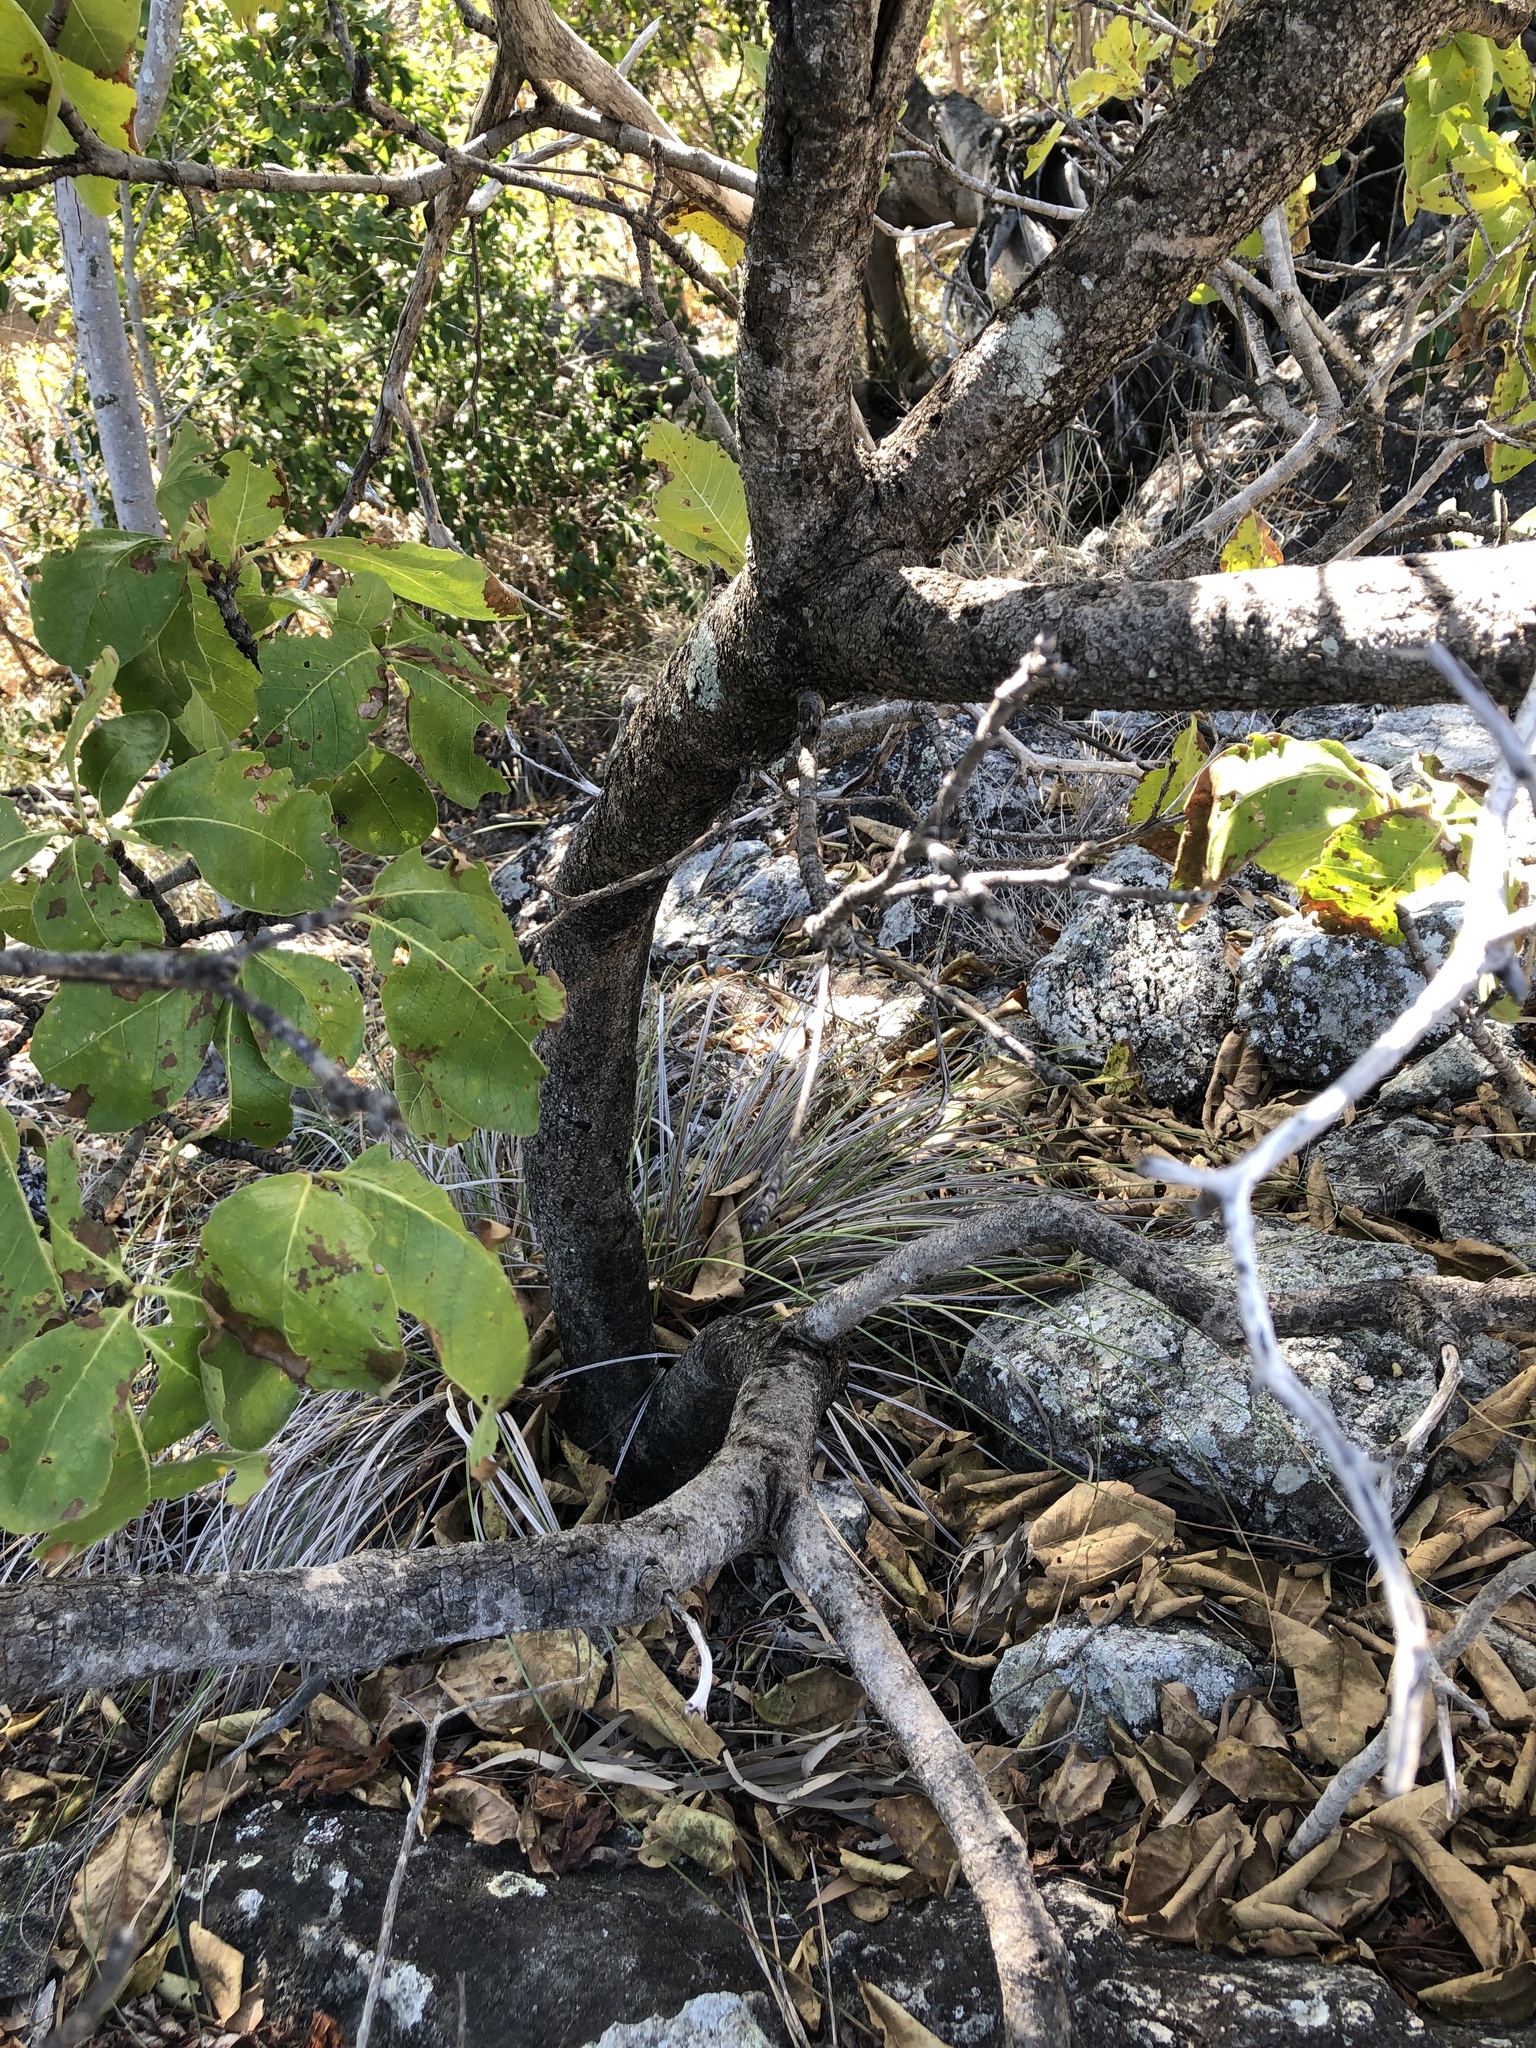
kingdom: Plantae
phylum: Tracheophyta
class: Magnoliopsida
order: Gentianales
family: Rubiaceae
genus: Larsenaikia
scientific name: Larsenaikia ochreata
